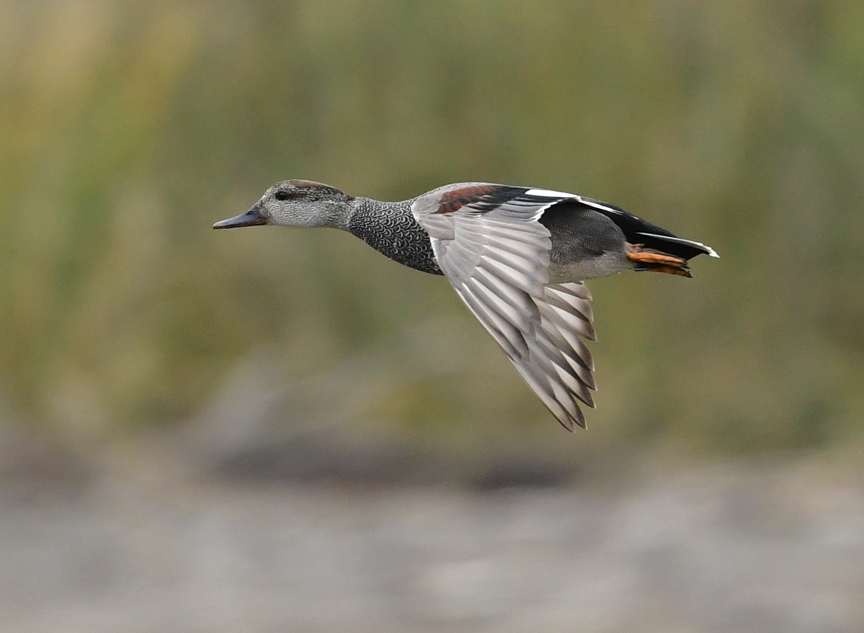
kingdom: Animalia
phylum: Chordata
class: Aves
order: Anseriformes
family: Anatidae
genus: Mareca
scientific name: Mareca strepera
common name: Gadwall
